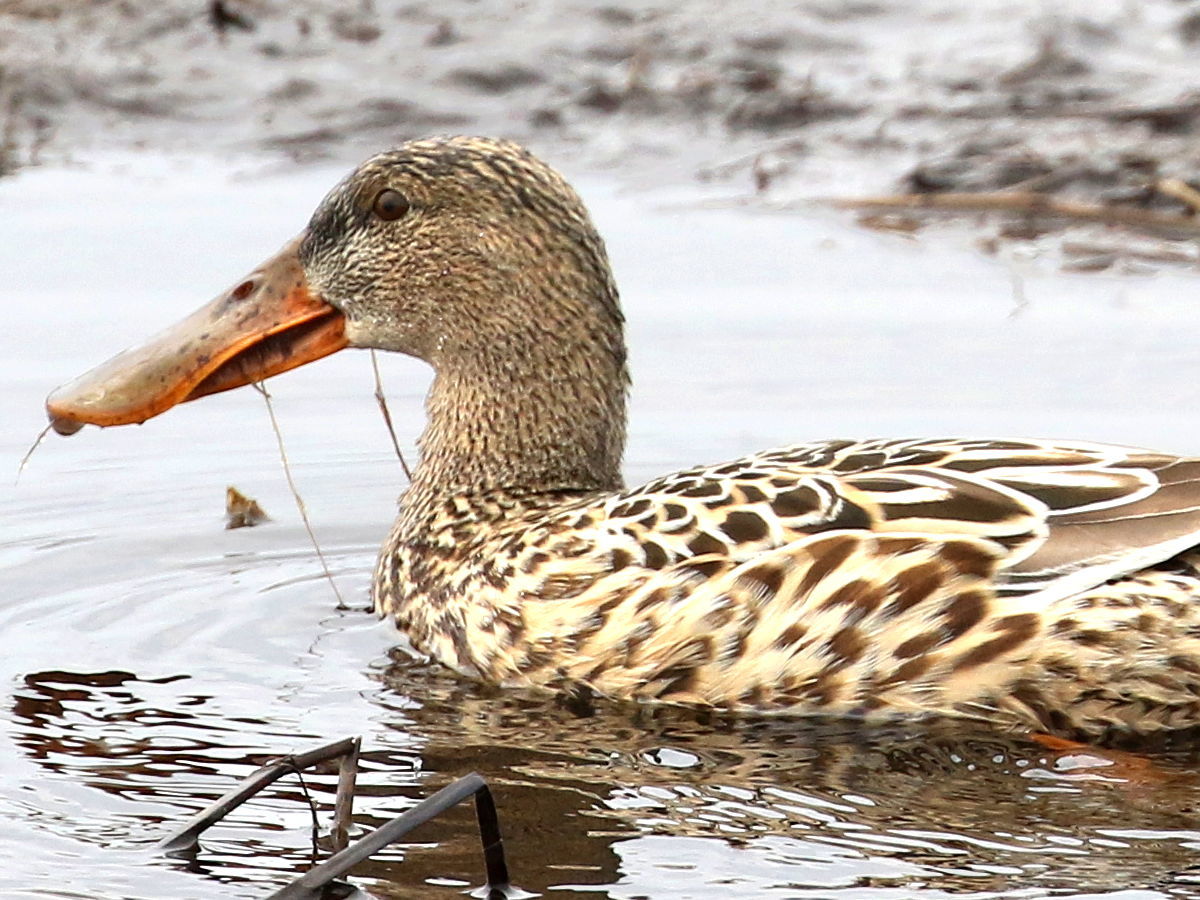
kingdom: Animalia
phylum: Chordata
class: Aves
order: Anseriformes
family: Anatidae
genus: Spatula
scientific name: Spatula clypeata
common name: Northern shoveler
